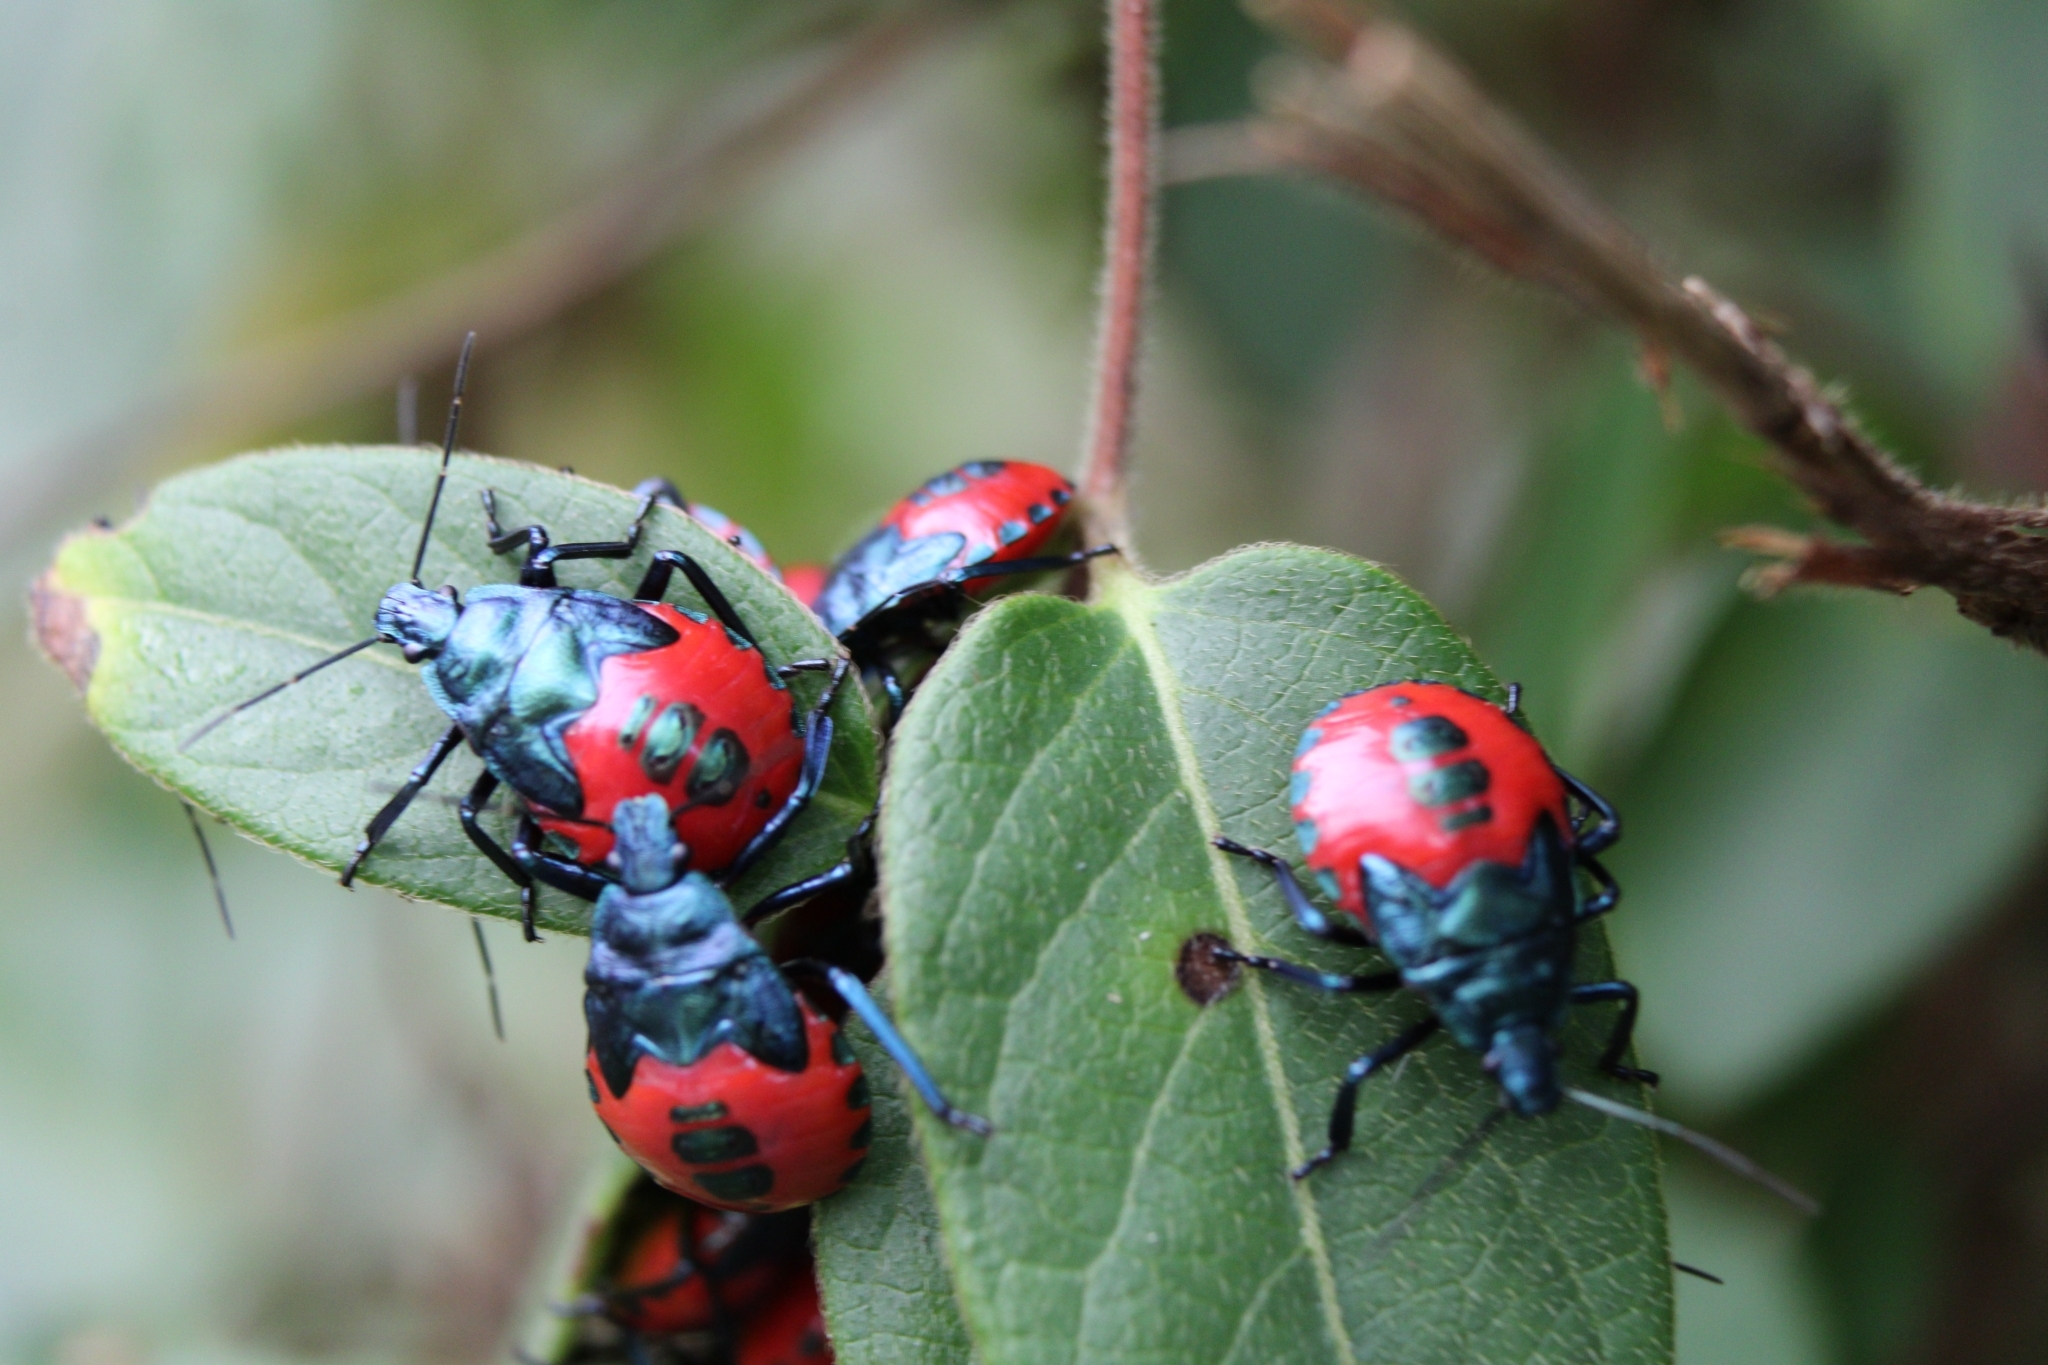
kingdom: Animalia
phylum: Arthropoda
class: Insecta
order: Hemiptera
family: Pentatomidae
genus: Euthyrhynchus
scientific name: Euthyrhynchus floridanus
